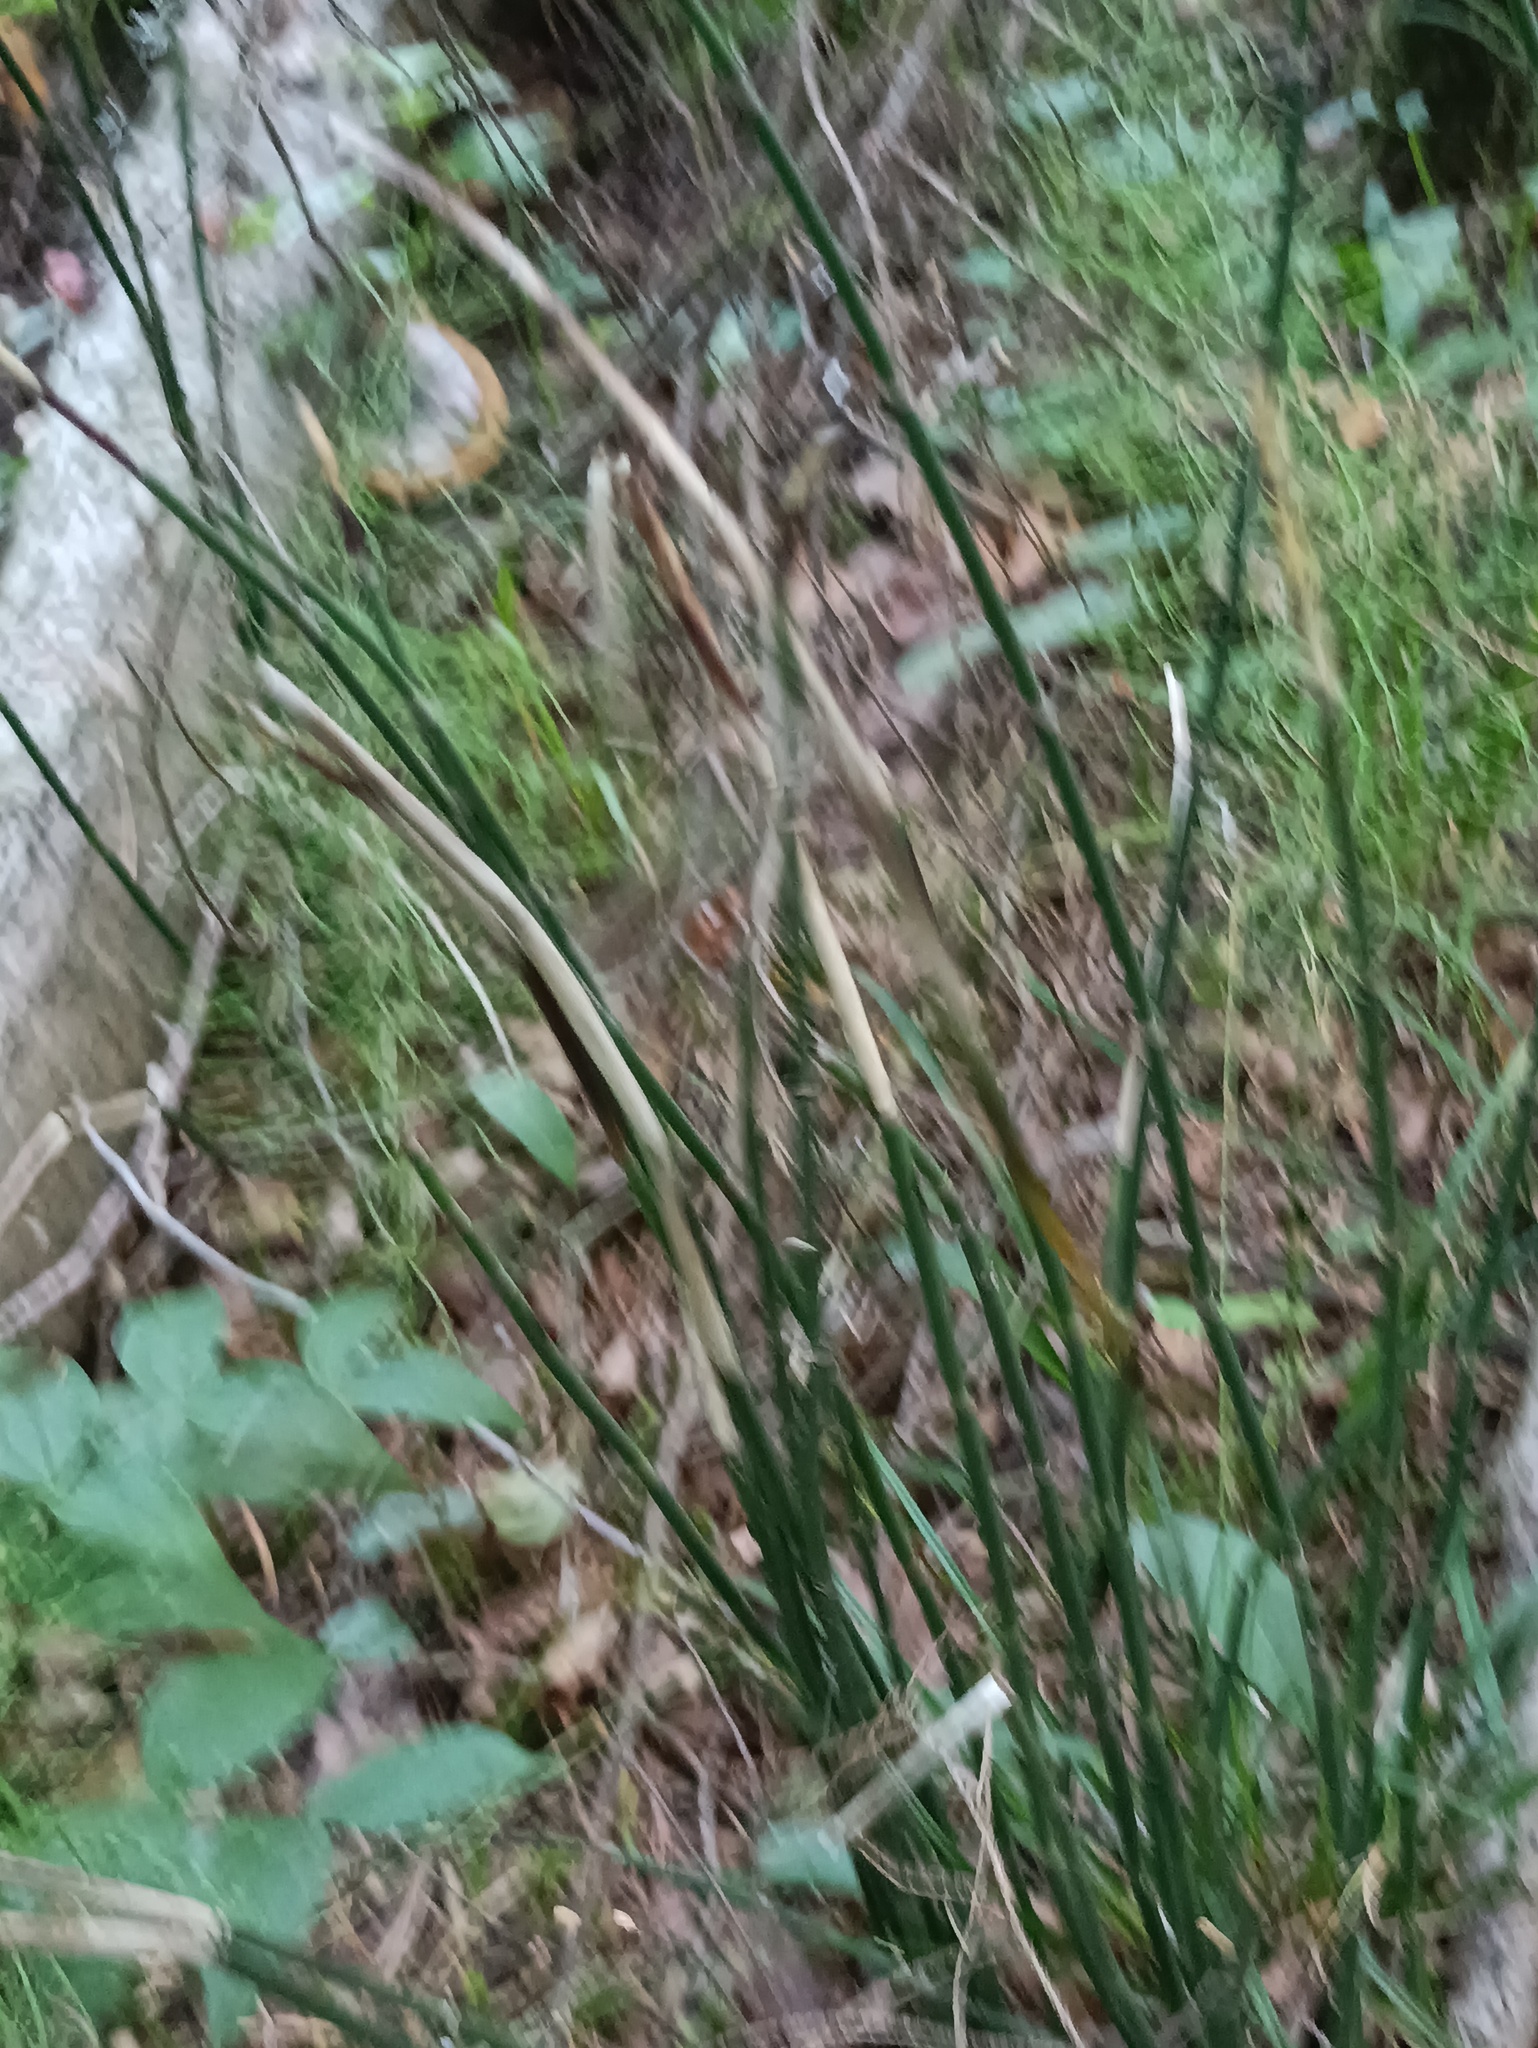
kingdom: Plantae
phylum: Tracheophyta
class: Polypodiopsida
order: Equisetales
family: Equisetaceae
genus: Equisetum
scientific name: Equisetum hyemale
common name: Rough horsetail
